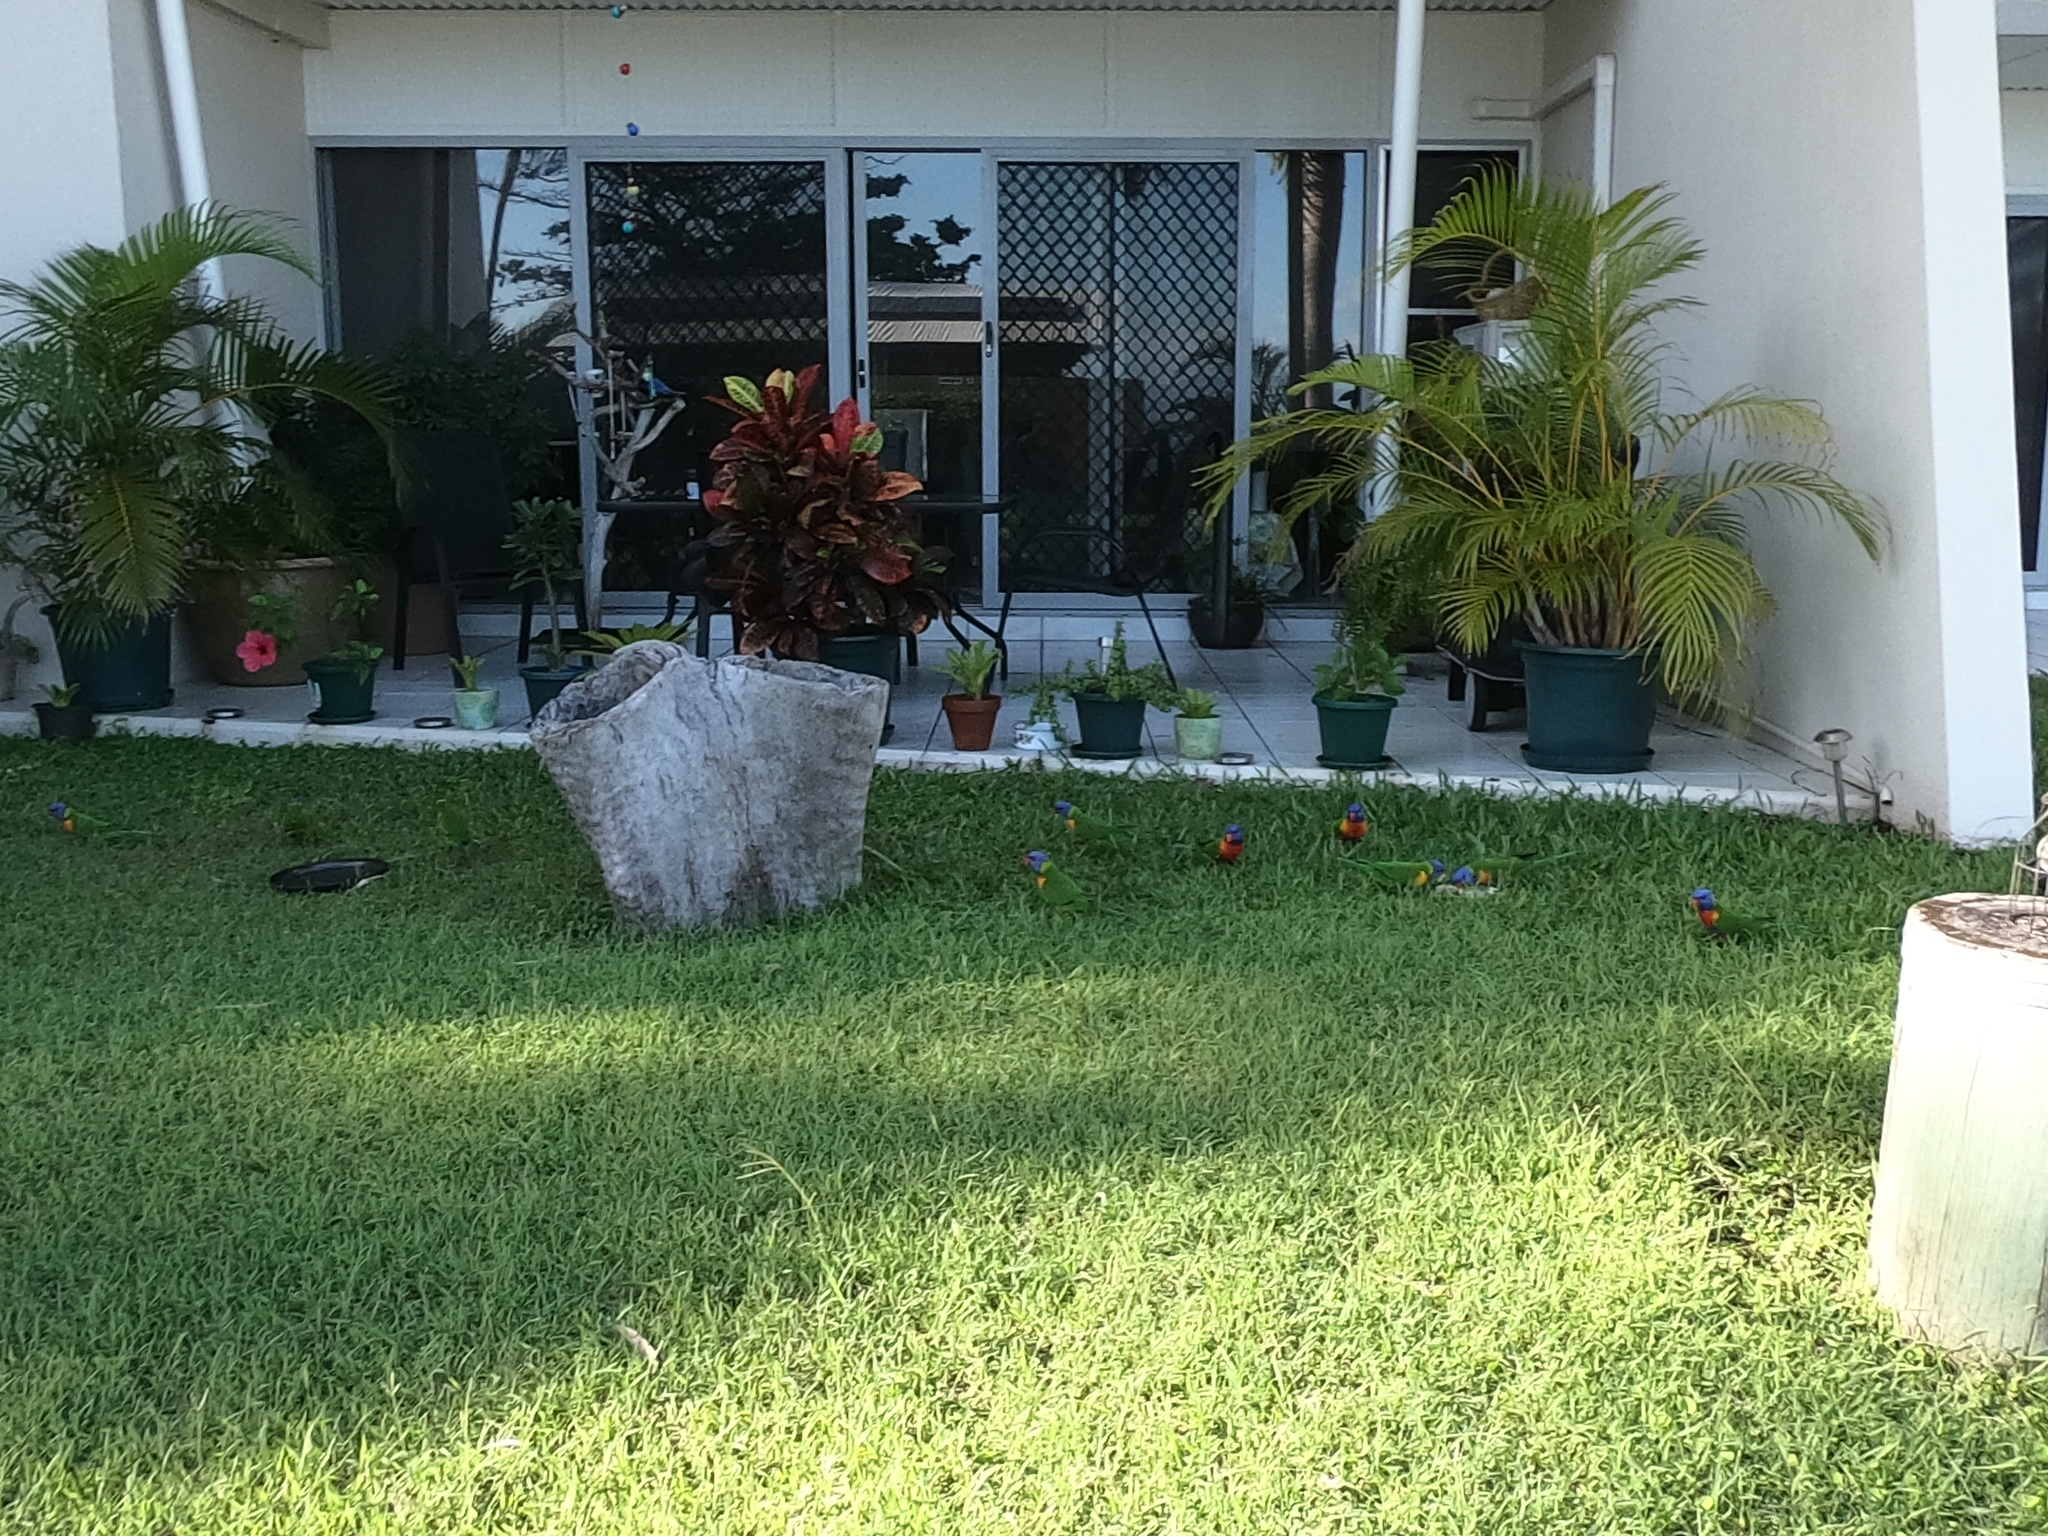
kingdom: Animalia
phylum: Chordata
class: Aves
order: Psittaciformes
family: Psittacidae
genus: Trichoglossus
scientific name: Trichoglossus haematodus
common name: Coconut lorikeet
